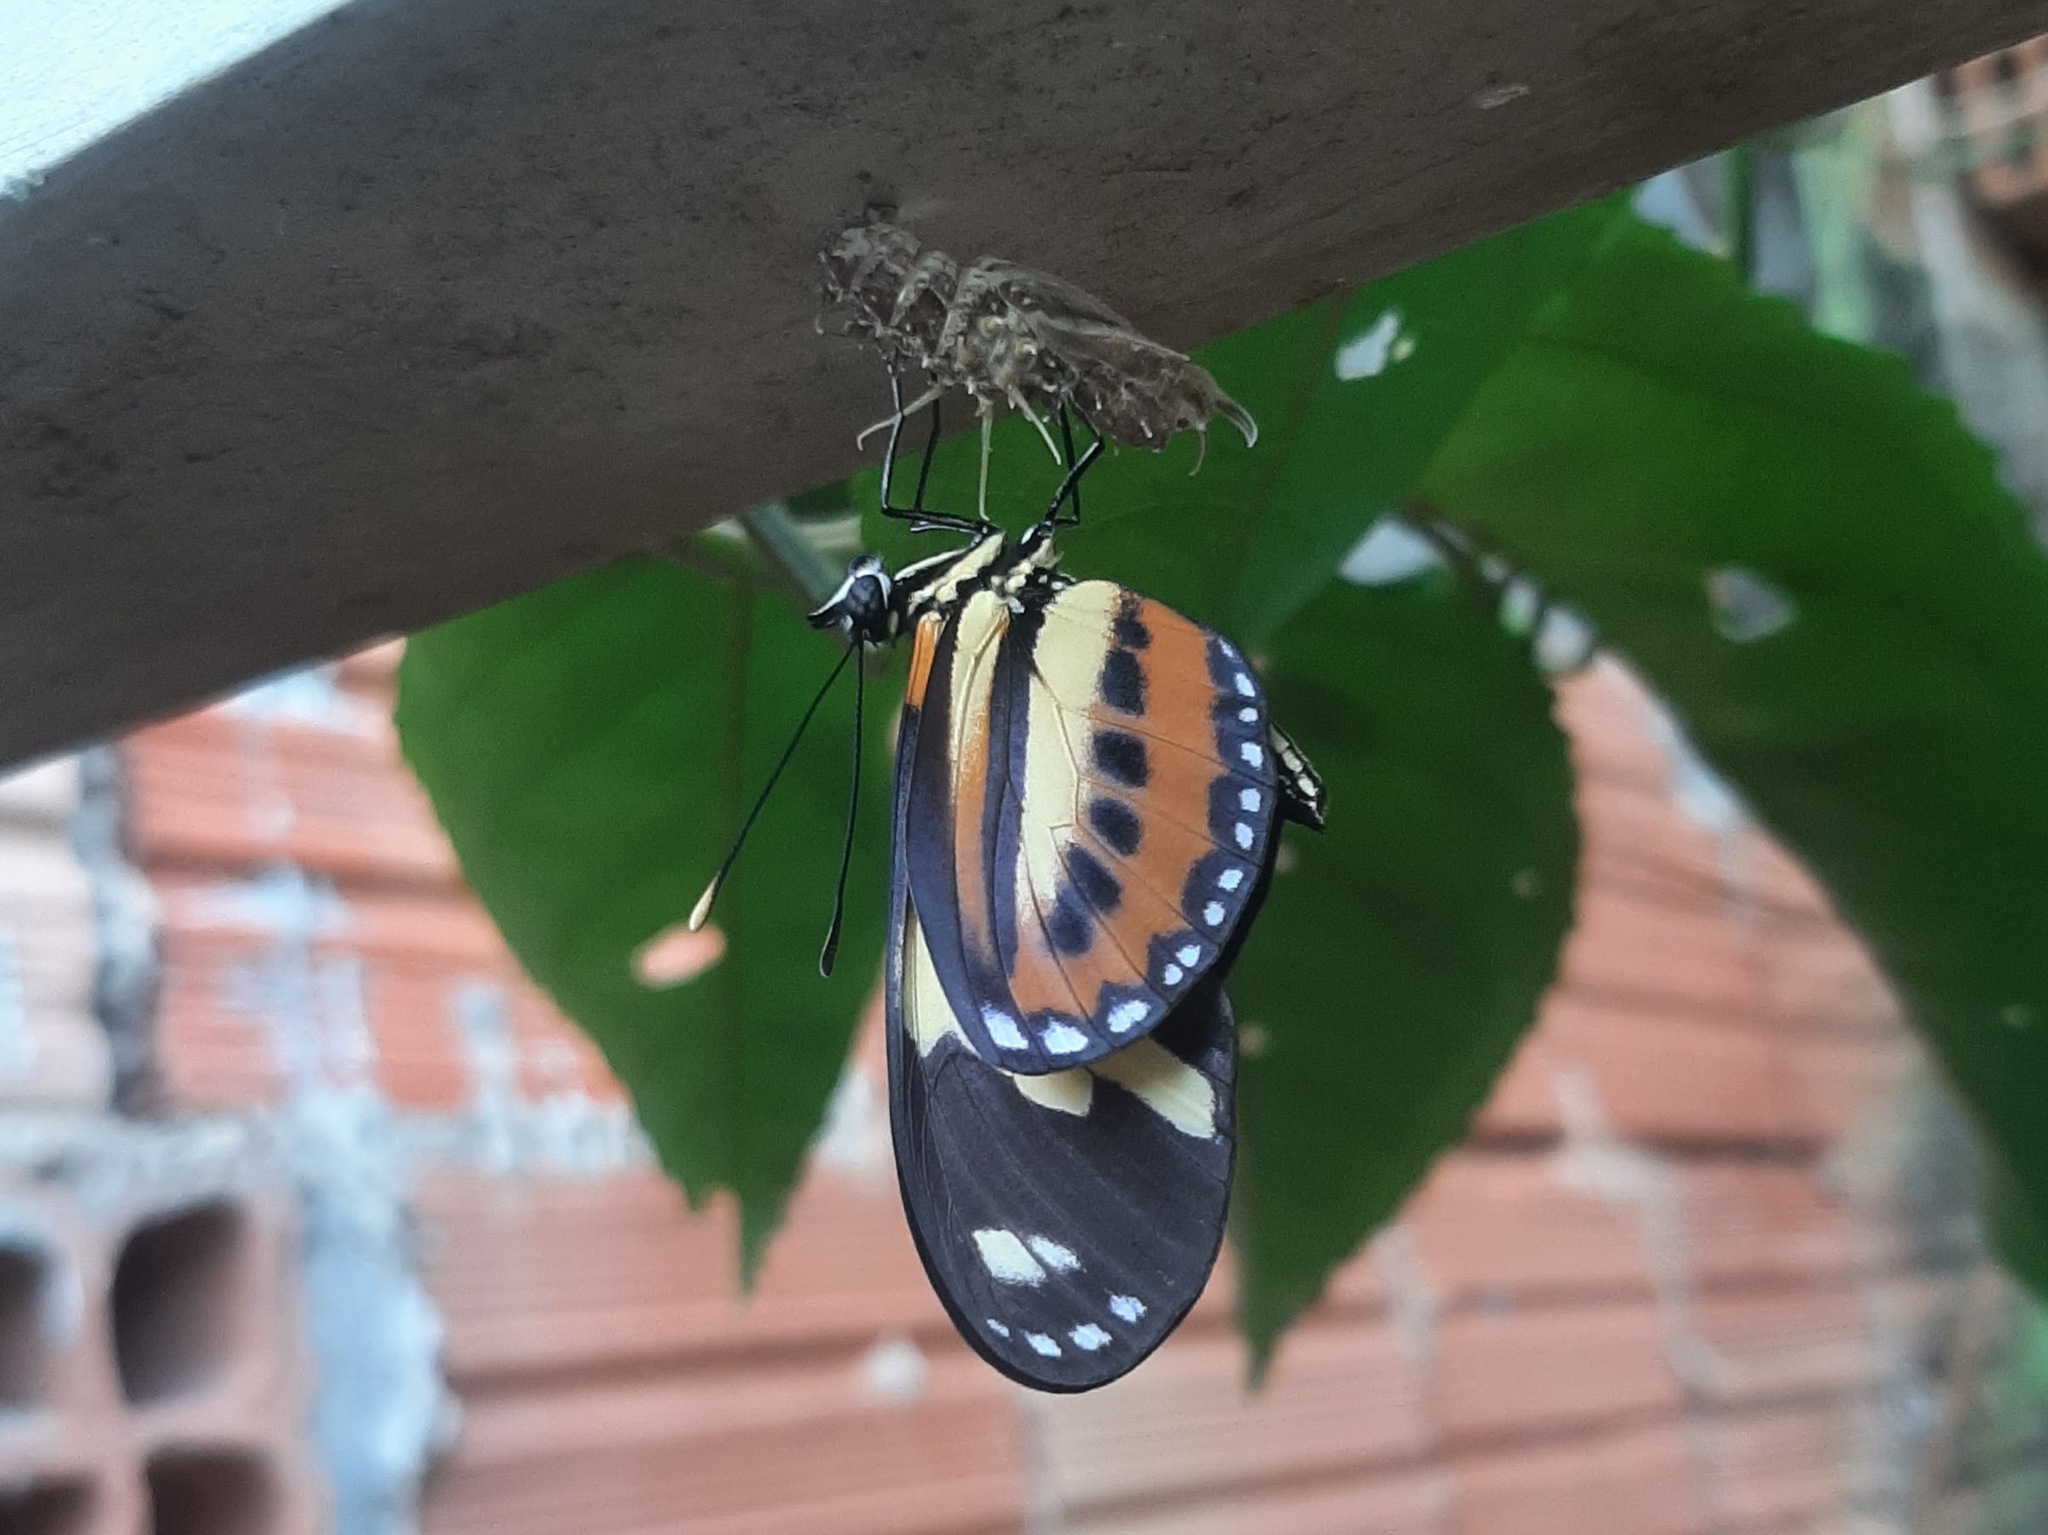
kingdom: Animalia
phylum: Arthropoda
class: Insecta
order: Lepidoptera
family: Nymphalidae
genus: Eueides
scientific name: Eueides isabella
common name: Isabella's longwing
